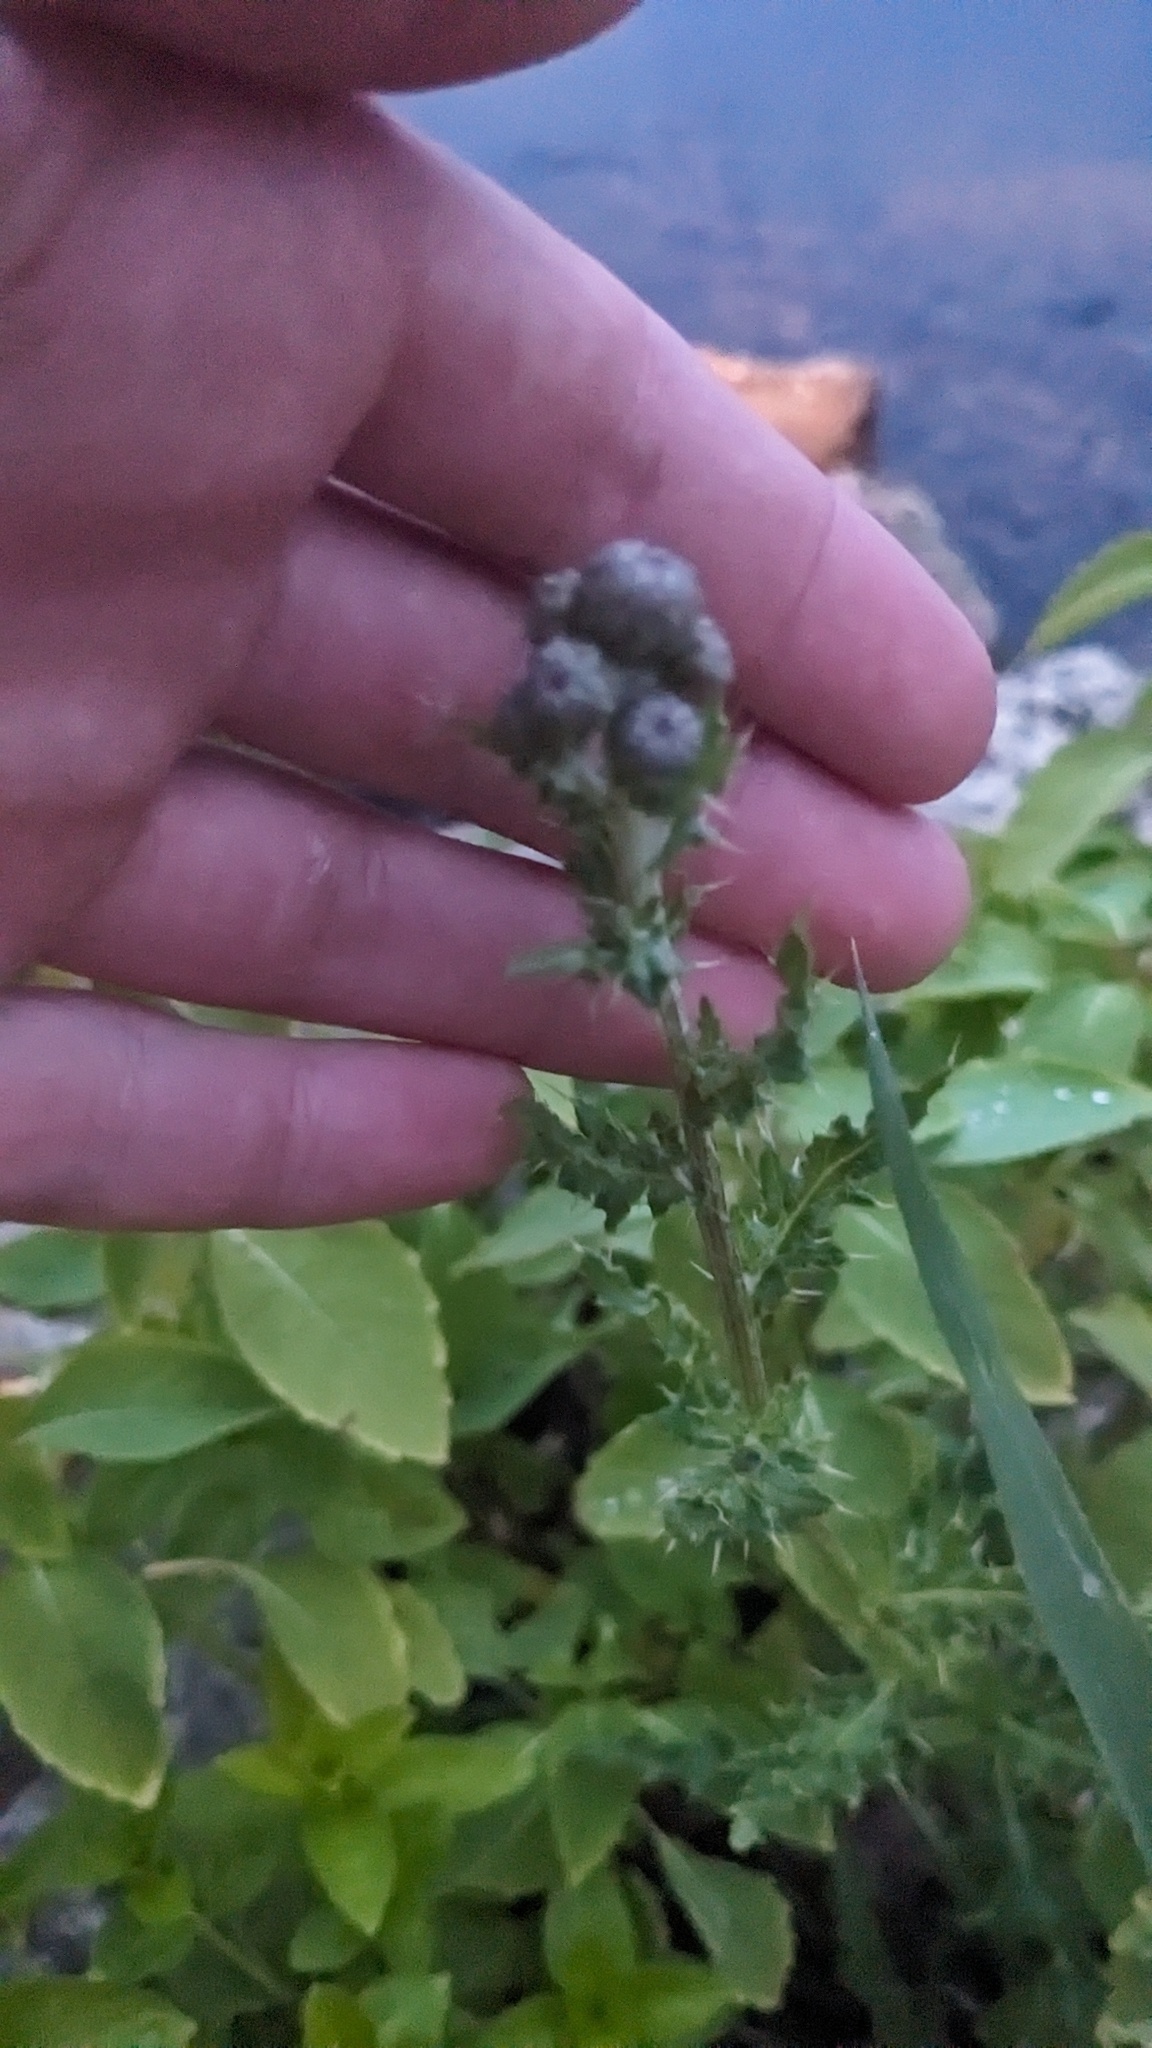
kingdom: Plantae
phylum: Tracheophyta
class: Magnoliopsida
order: Asterales
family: Asteraceae
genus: Cirsium
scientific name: Cirsium arvense
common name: Creeping thistle
